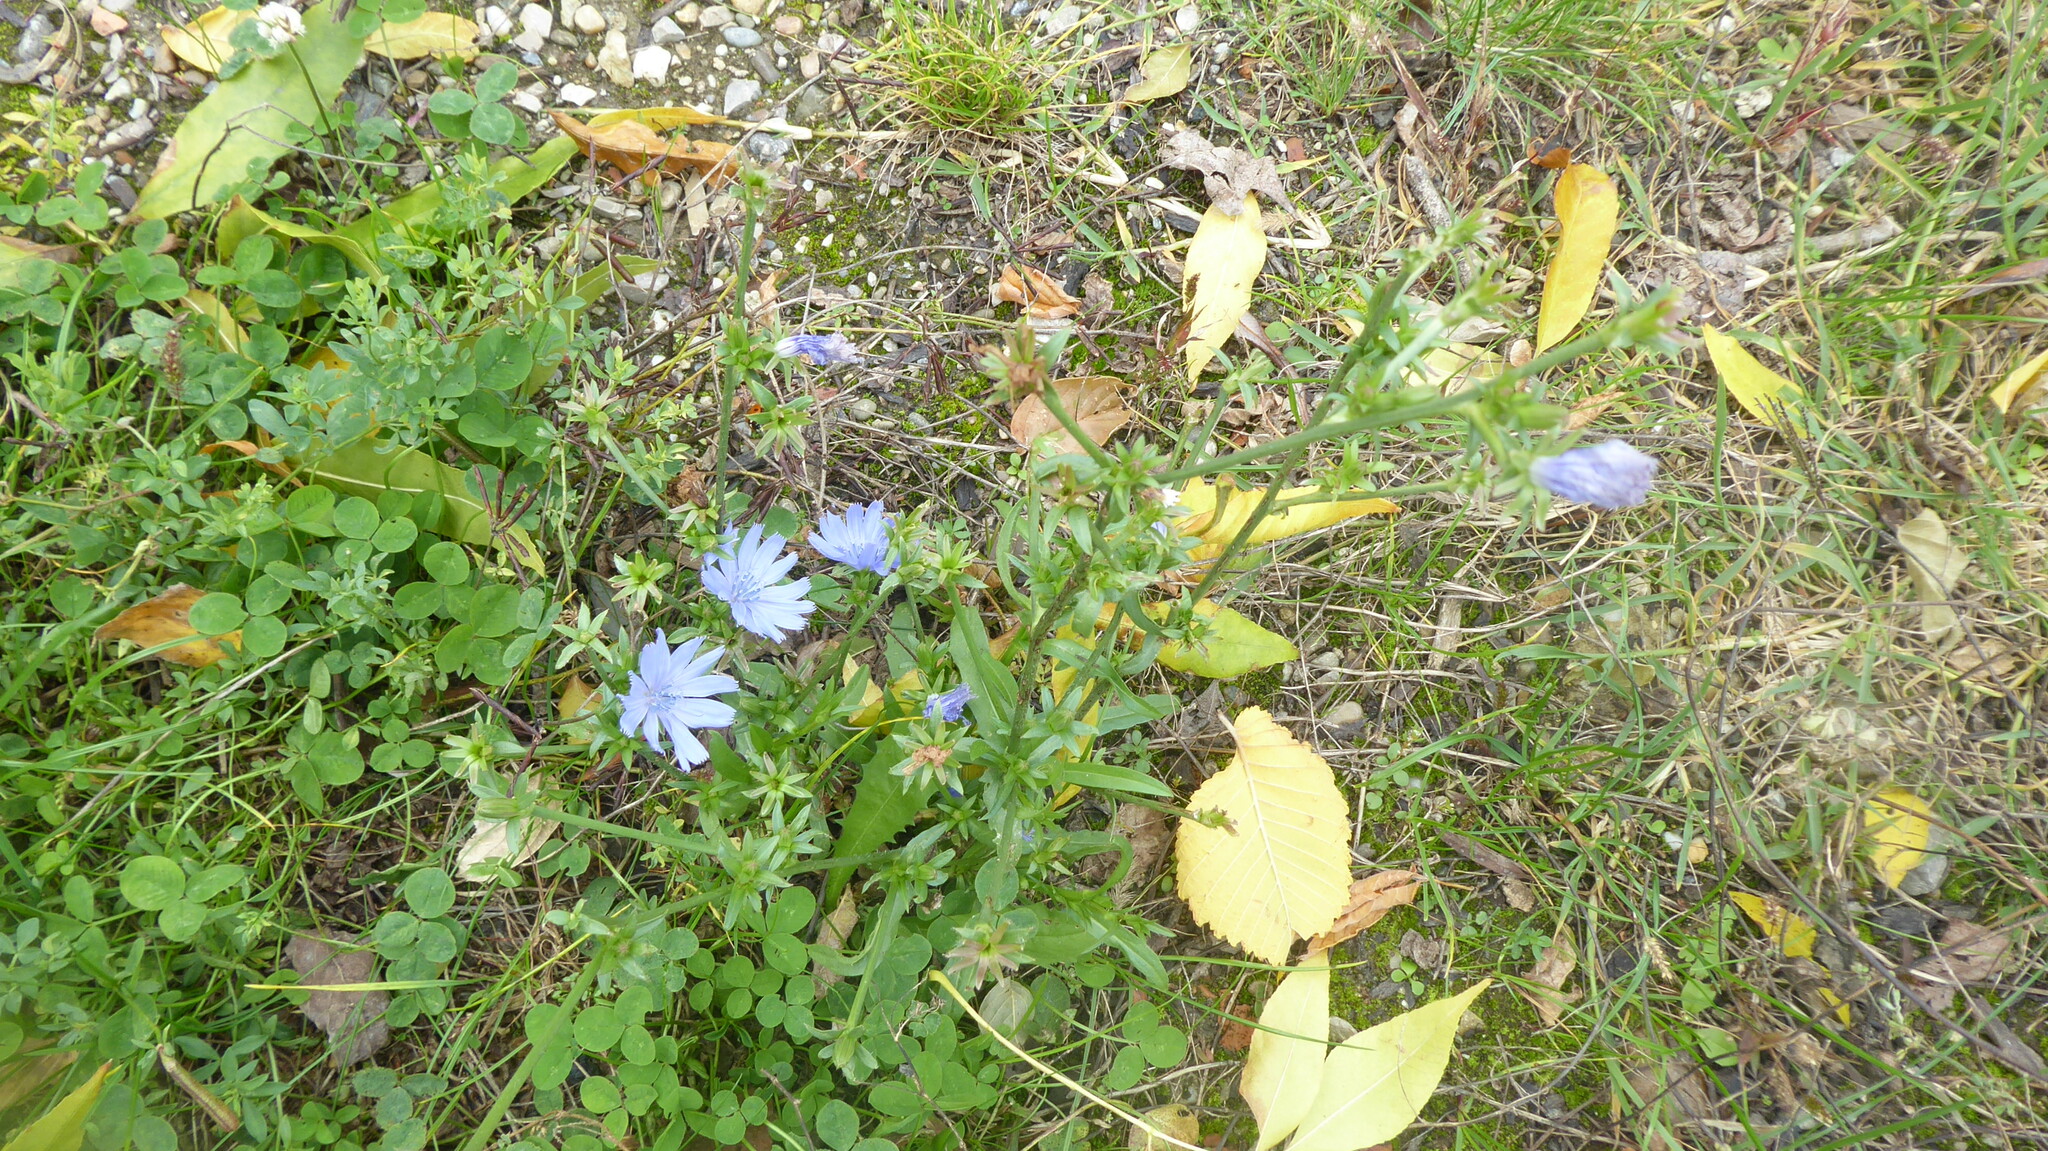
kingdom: Plantae
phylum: Tracheophyta
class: Magnoliopsida
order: Asterales
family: Asteraceae
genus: Cichorium
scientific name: Cichorium intybus
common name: Chicory
